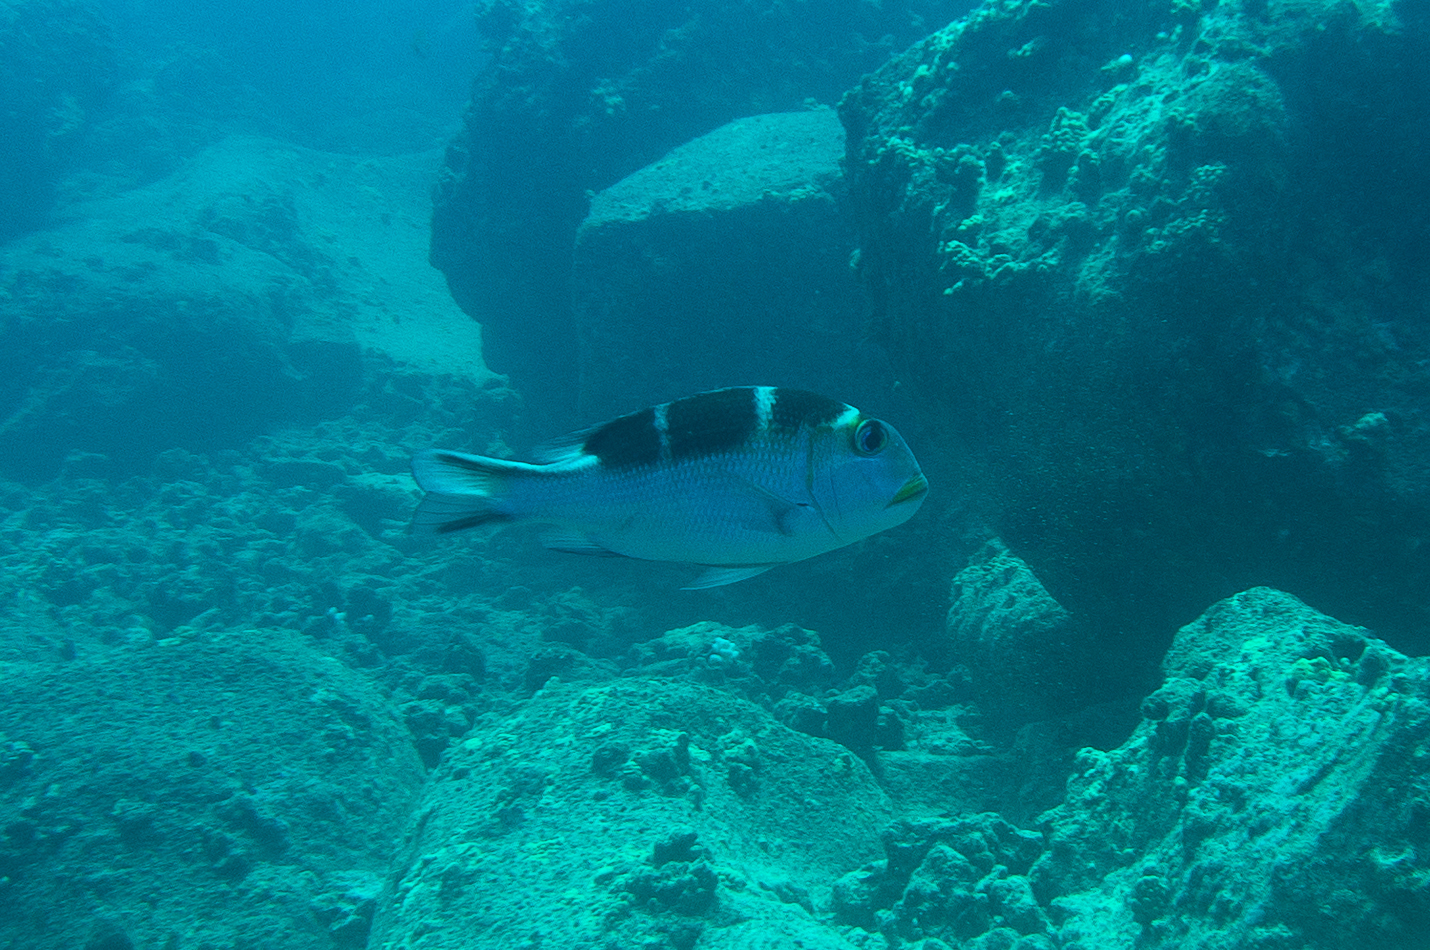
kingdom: Animalia
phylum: Chordata
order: Perciformes
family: Lethrinidae
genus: Monotaxis
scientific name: Monotaxis grandoculis
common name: Bigeye emperor
